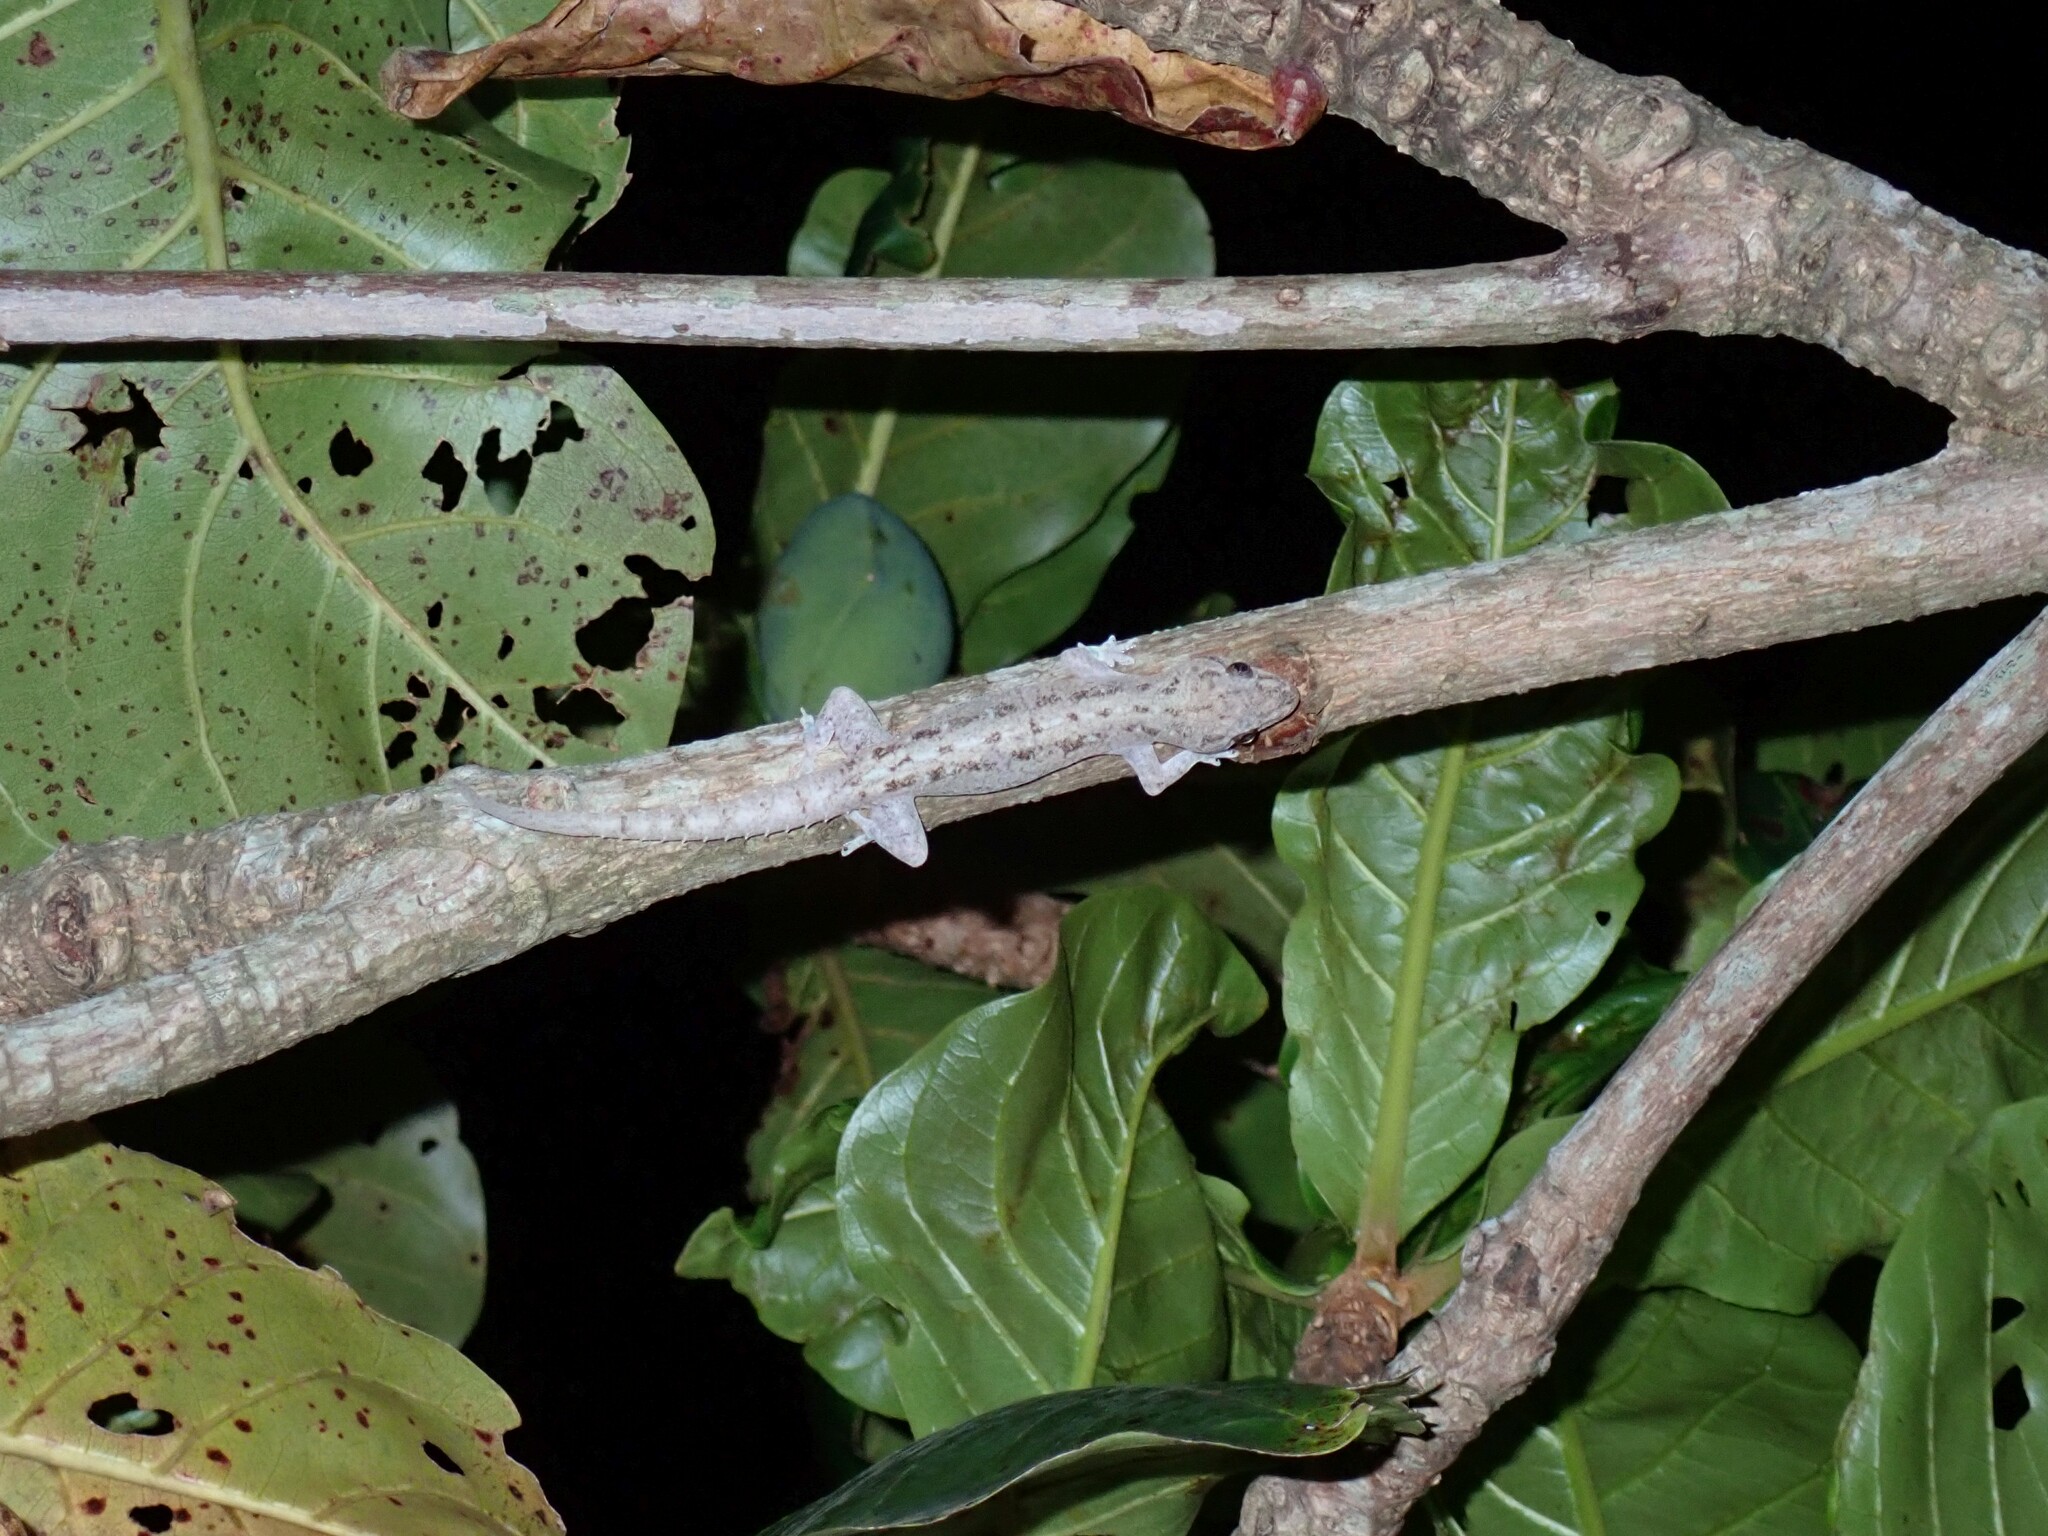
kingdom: Animalia
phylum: Chordata
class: Squamata
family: Gekkonidae
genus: Hemidactylus
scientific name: Hemidactylus frenatus
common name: Common house gecko
